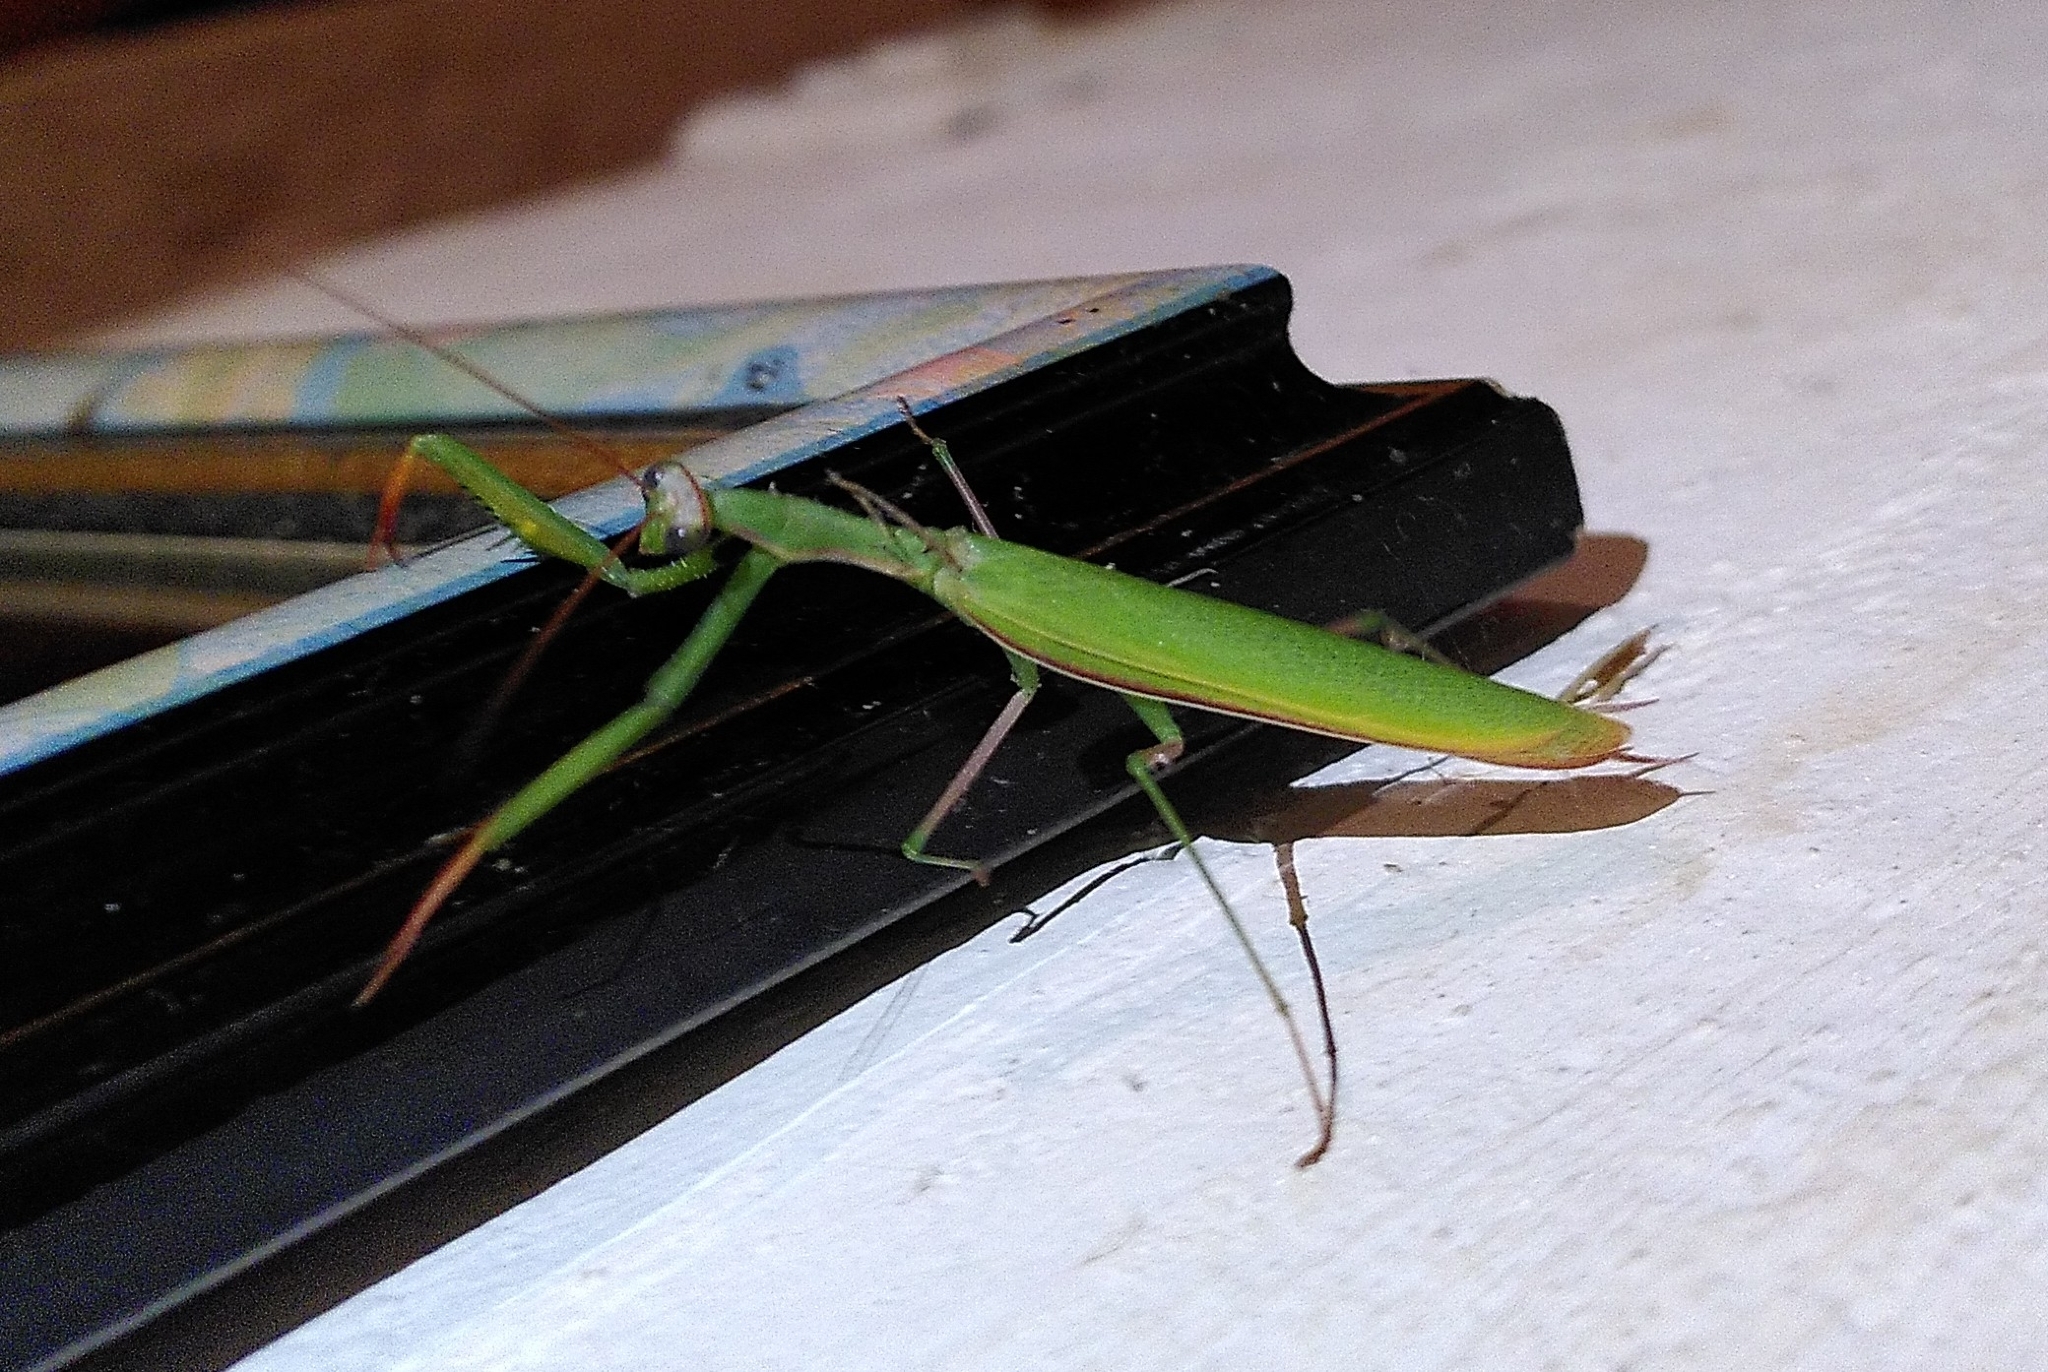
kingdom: Animalia
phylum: Arthropoda
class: Insecta
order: Mantodea
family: Mantidae
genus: Mantis
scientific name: Mantis religiosa
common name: Praying mantis
